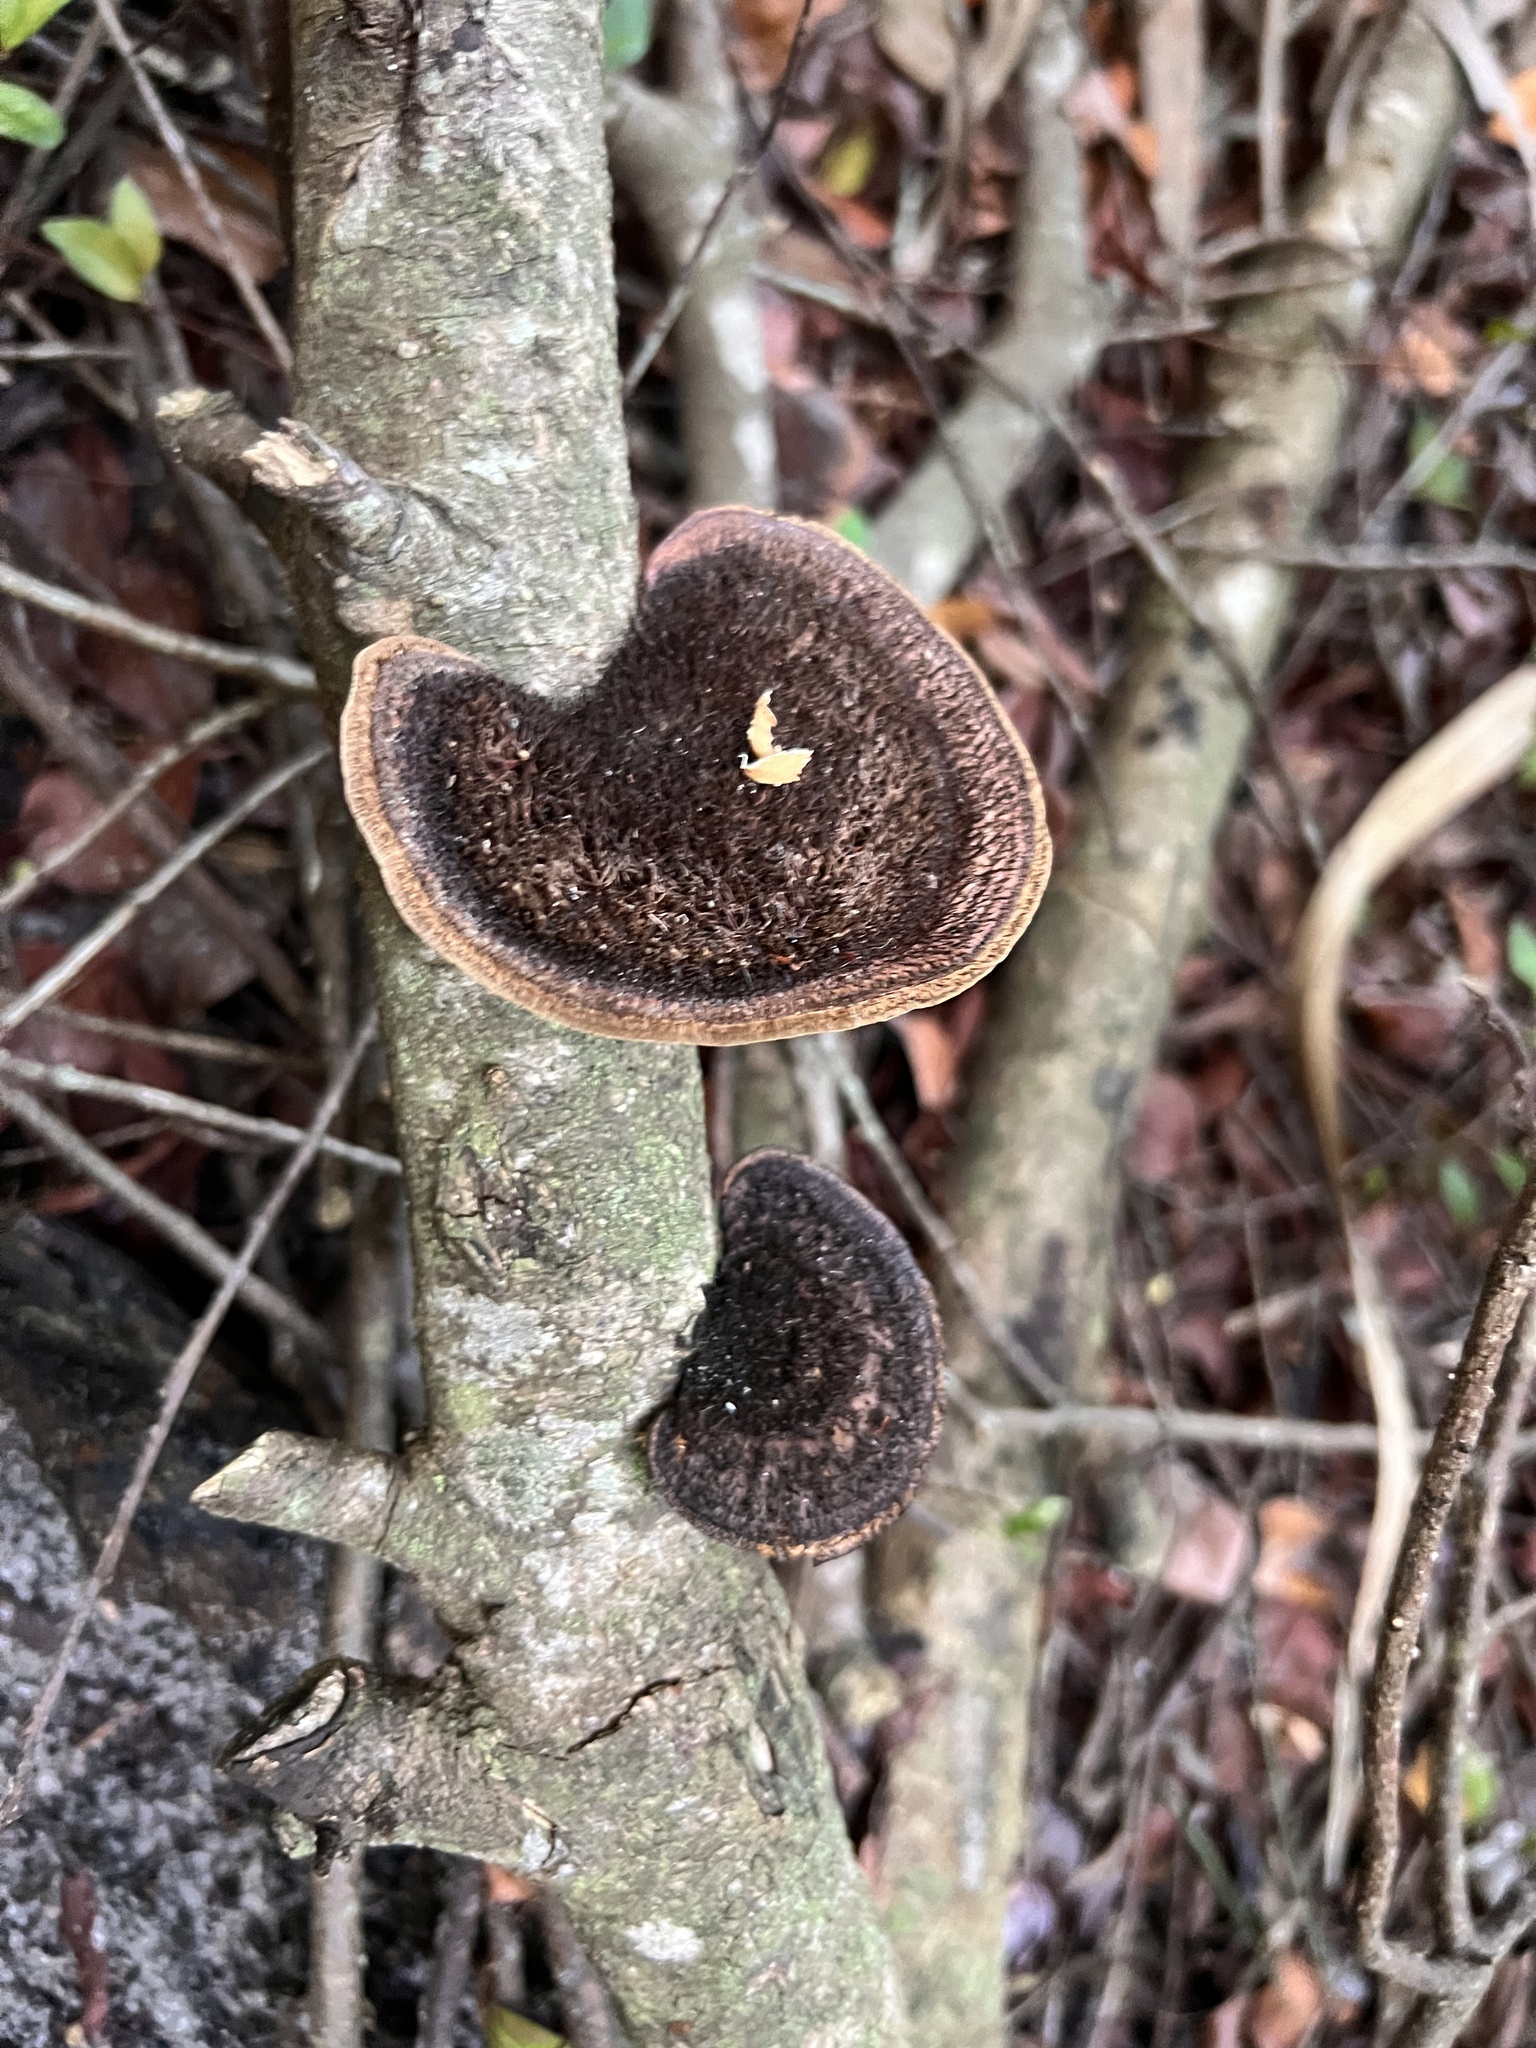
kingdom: Fungi
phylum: Basidiomycota
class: Agaricomycetes
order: Polyporales
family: Cerrenaceae
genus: Cerrena
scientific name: Cerrena hydnoides
